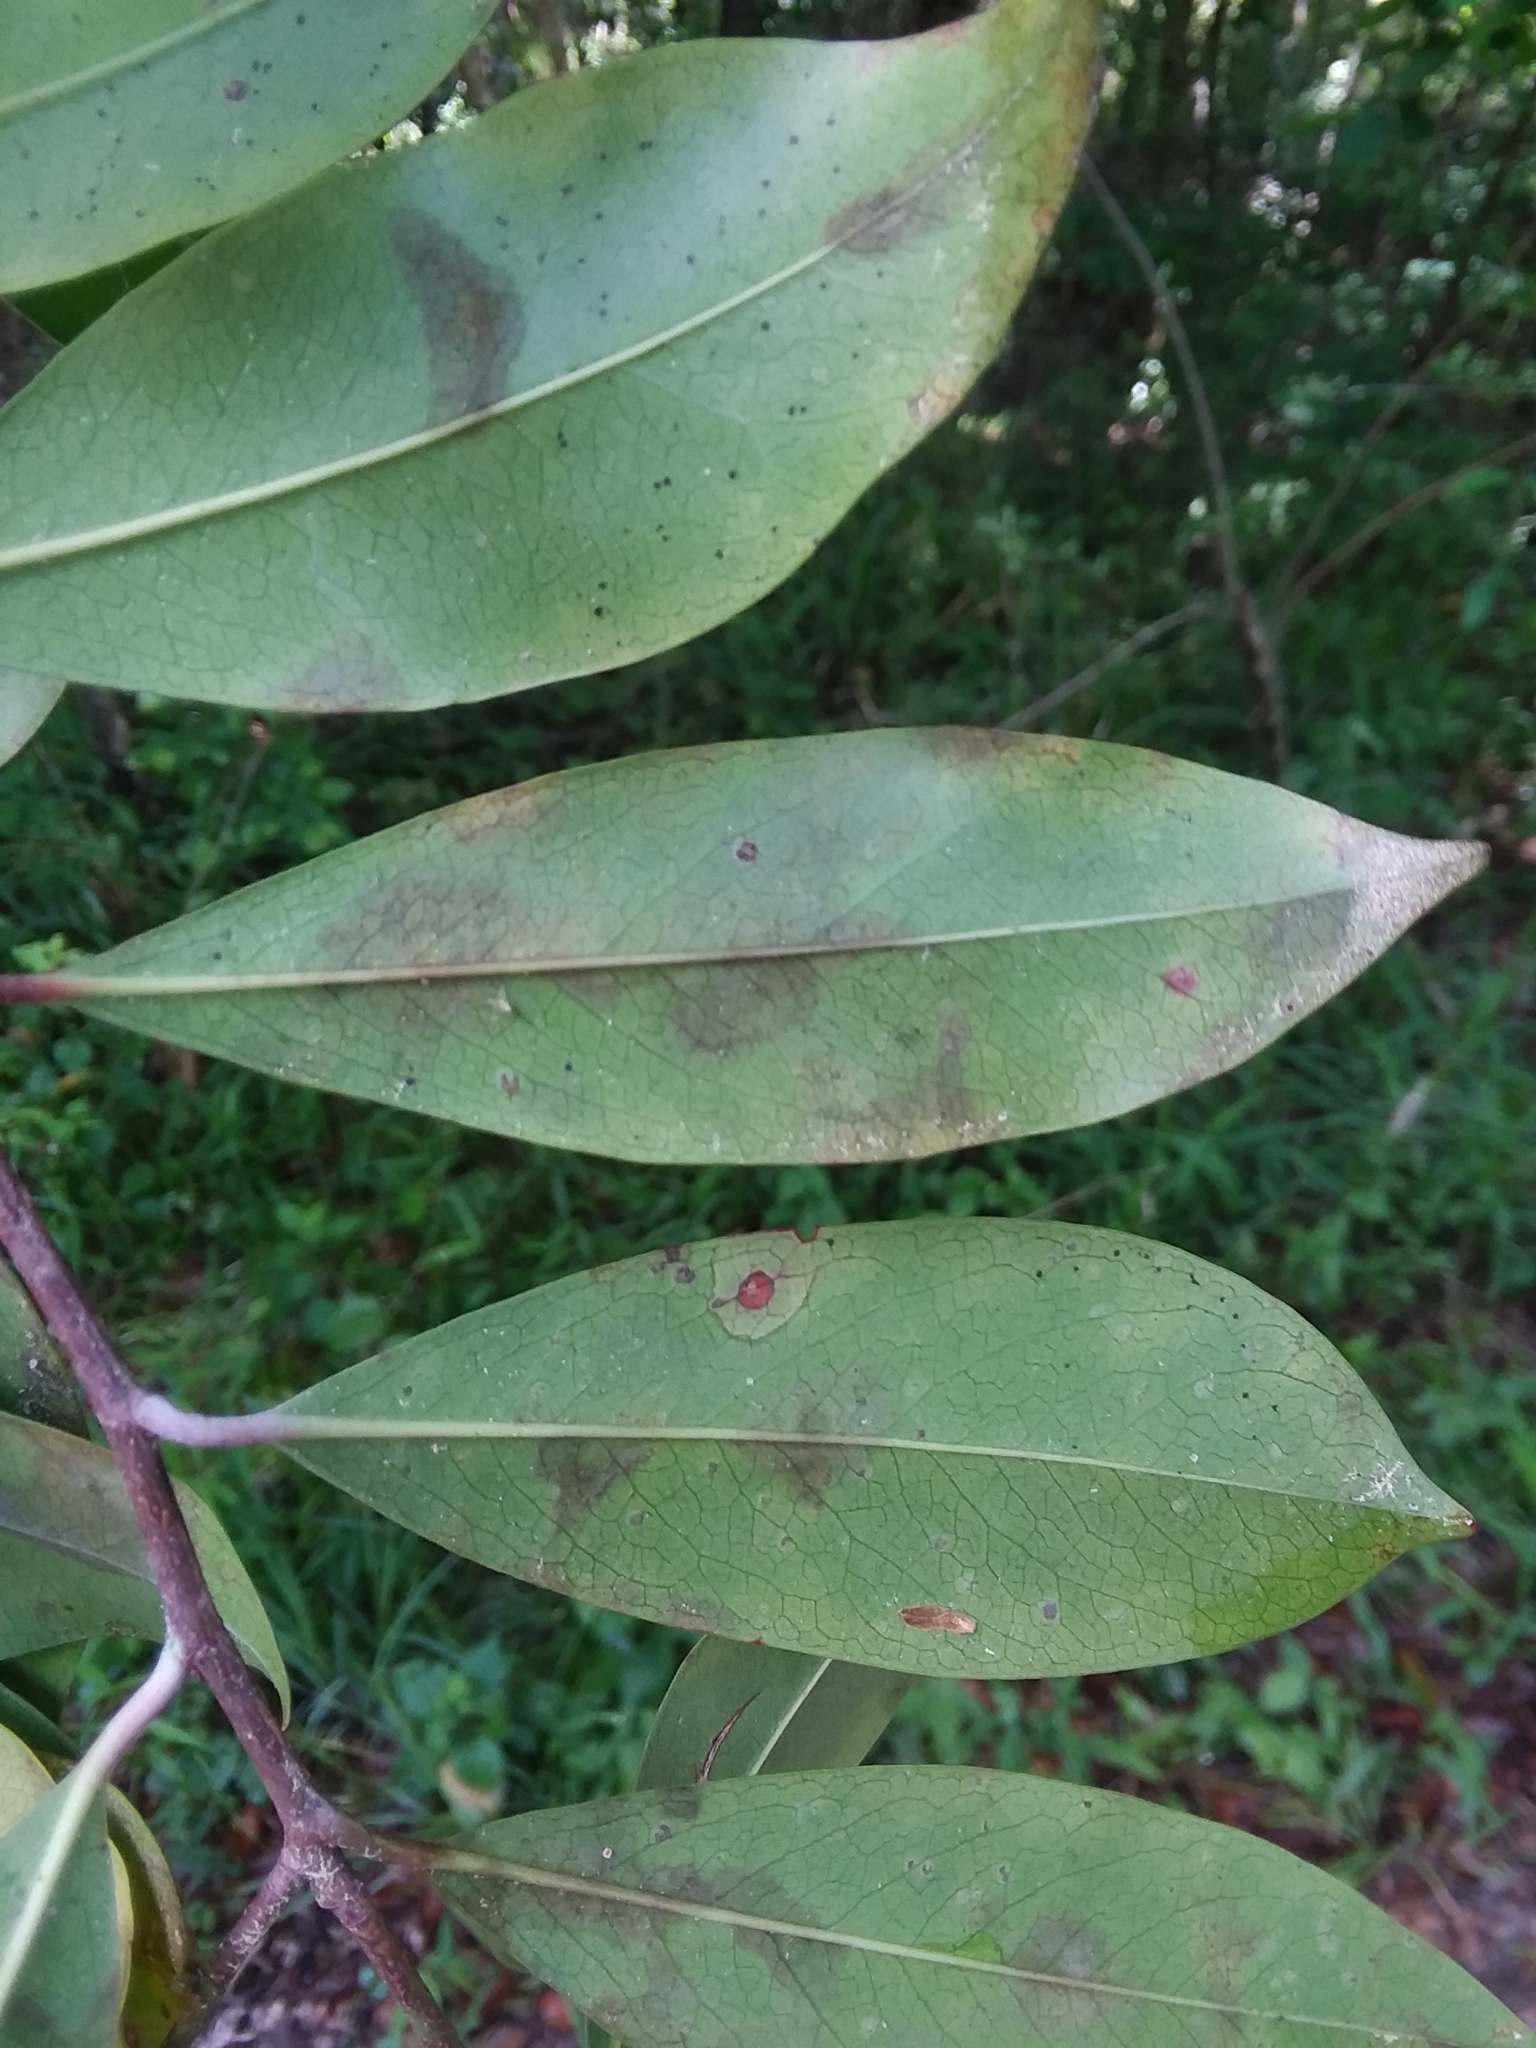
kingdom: Plantae
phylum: Tracheophyta
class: Magnoliopsida
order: Rosales
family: Rosaceae
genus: Prunus
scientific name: Prunus caroliniana
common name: Carolina laurel cherry
